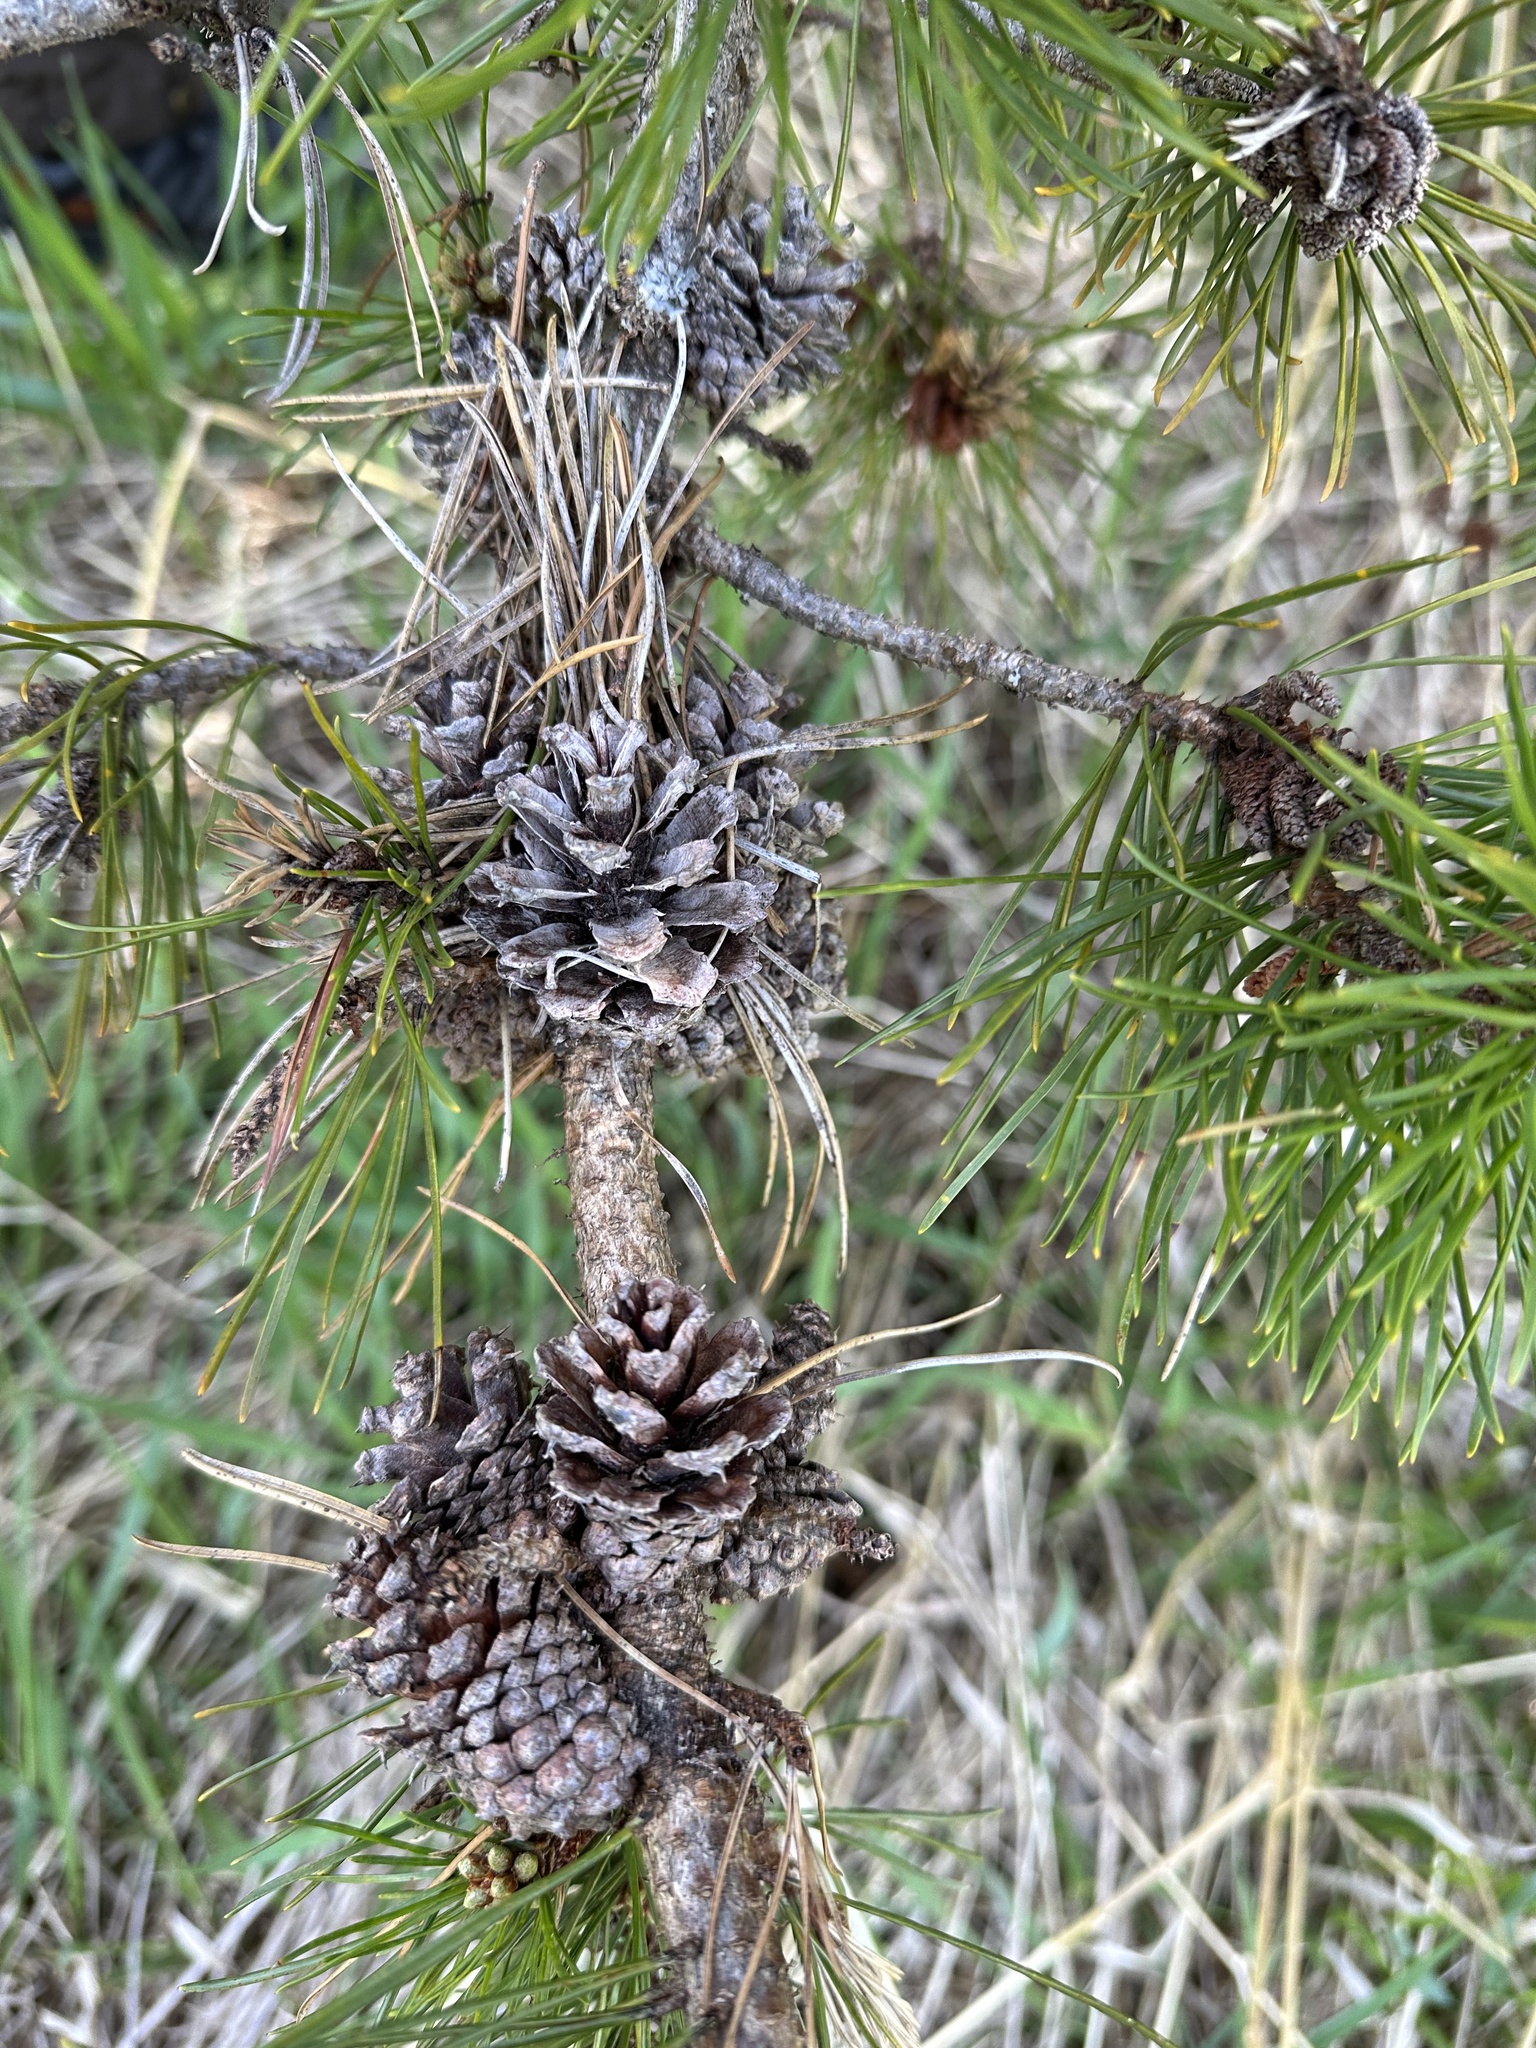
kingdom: Plantae
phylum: Tracheophyta
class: Pinopsida
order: Pinales
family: Pinaceae
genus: Pinus
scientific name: Pinus contorta
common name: Lodgepole pine
